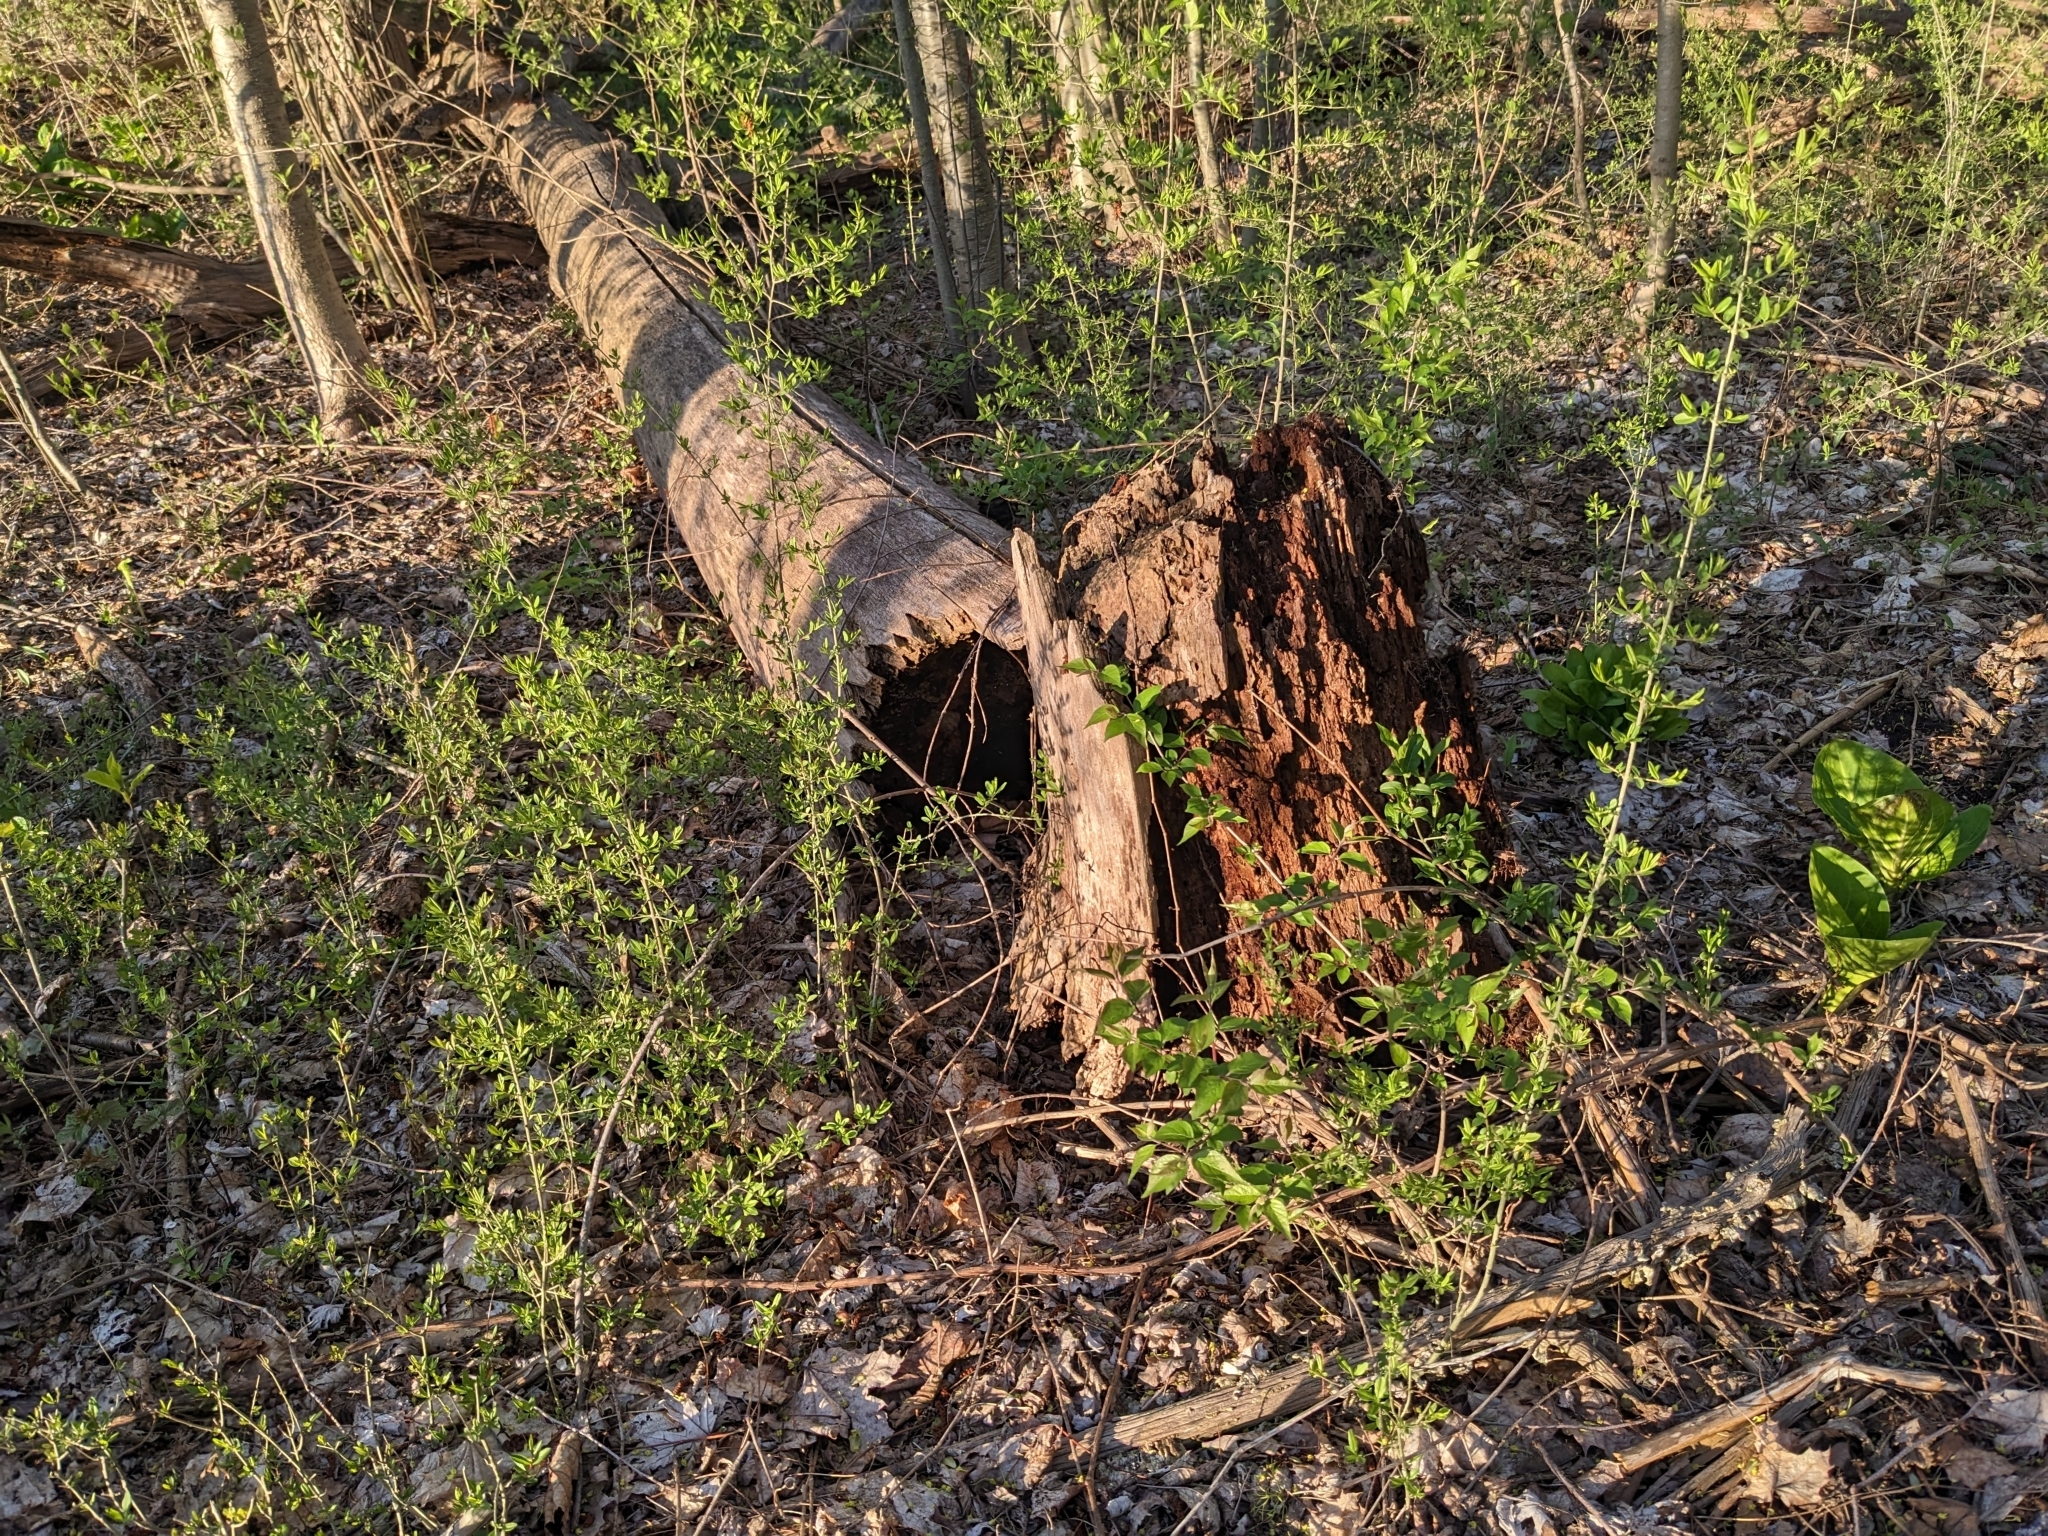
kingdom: Plantae
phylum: Tracheophyta
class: Magnoliopsida
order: Lamiales
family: Oleaceae
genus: Ligustrum
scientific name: Ligustrum obtusifolium
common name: Border privet
